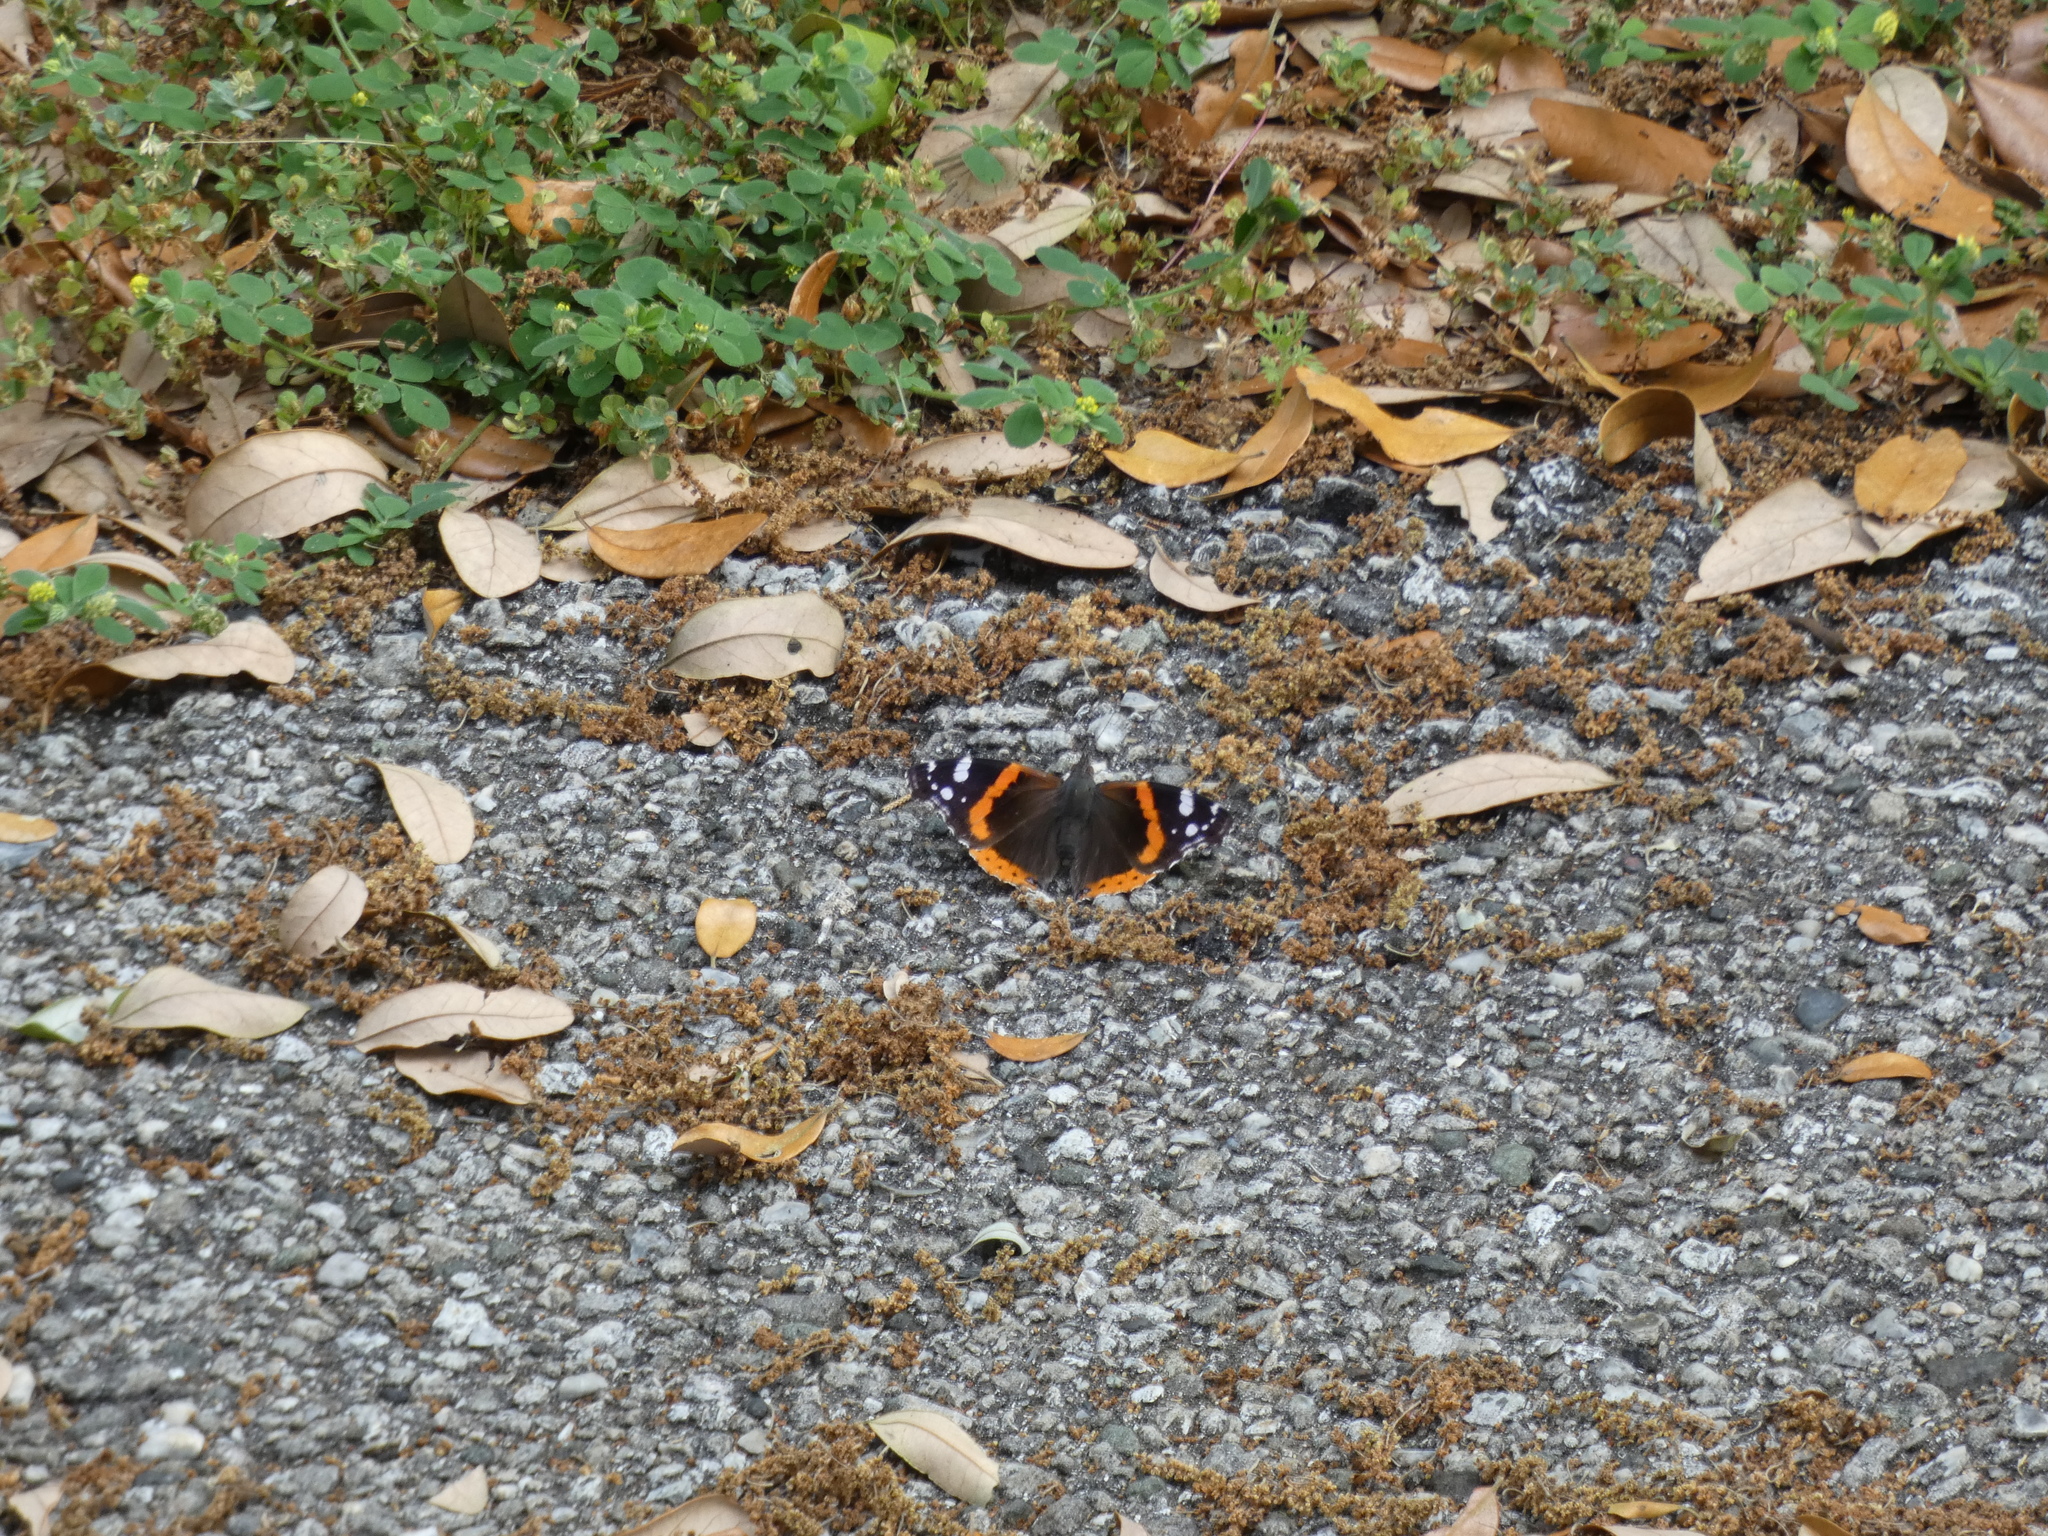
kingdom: Animalia
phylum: Arthropoda
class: Insecta
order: Lepidoptera
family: Nymphalidae
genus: Vanessa
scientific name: Vanessa atalanta
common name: Red admiral
